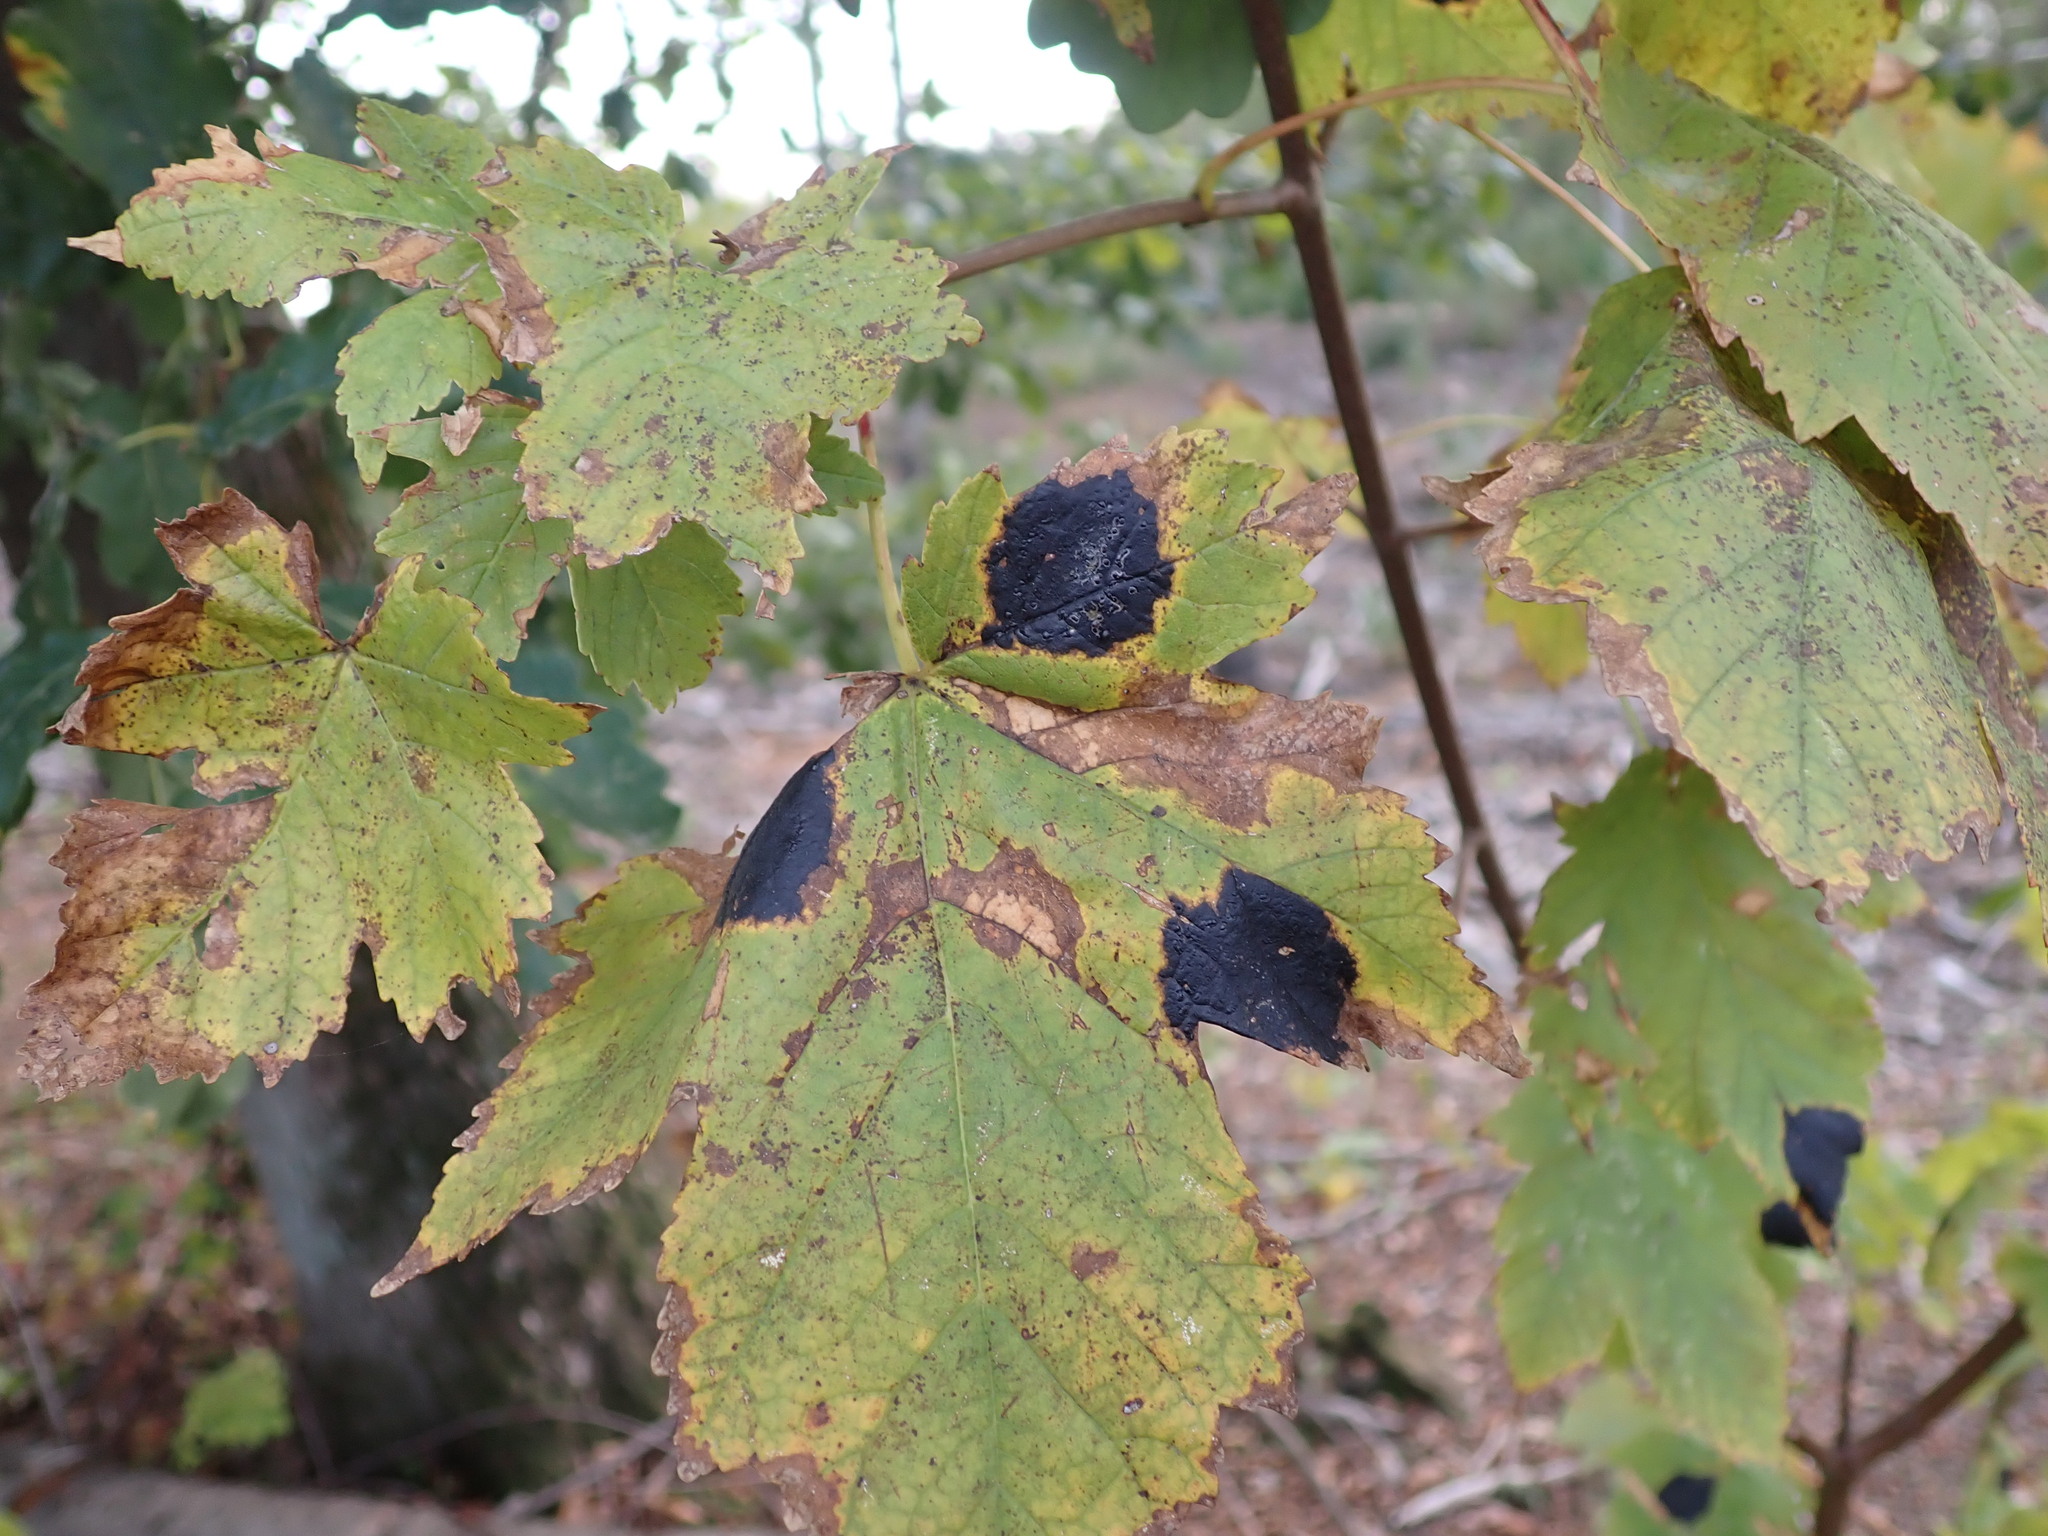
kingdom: Fungi
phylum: Ascomycota
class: Leotiomycetes
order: Rhytismatales
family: Rhytismataceae
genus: Rhytisma
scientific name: Rhytisma acerinum
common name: European tar spot
